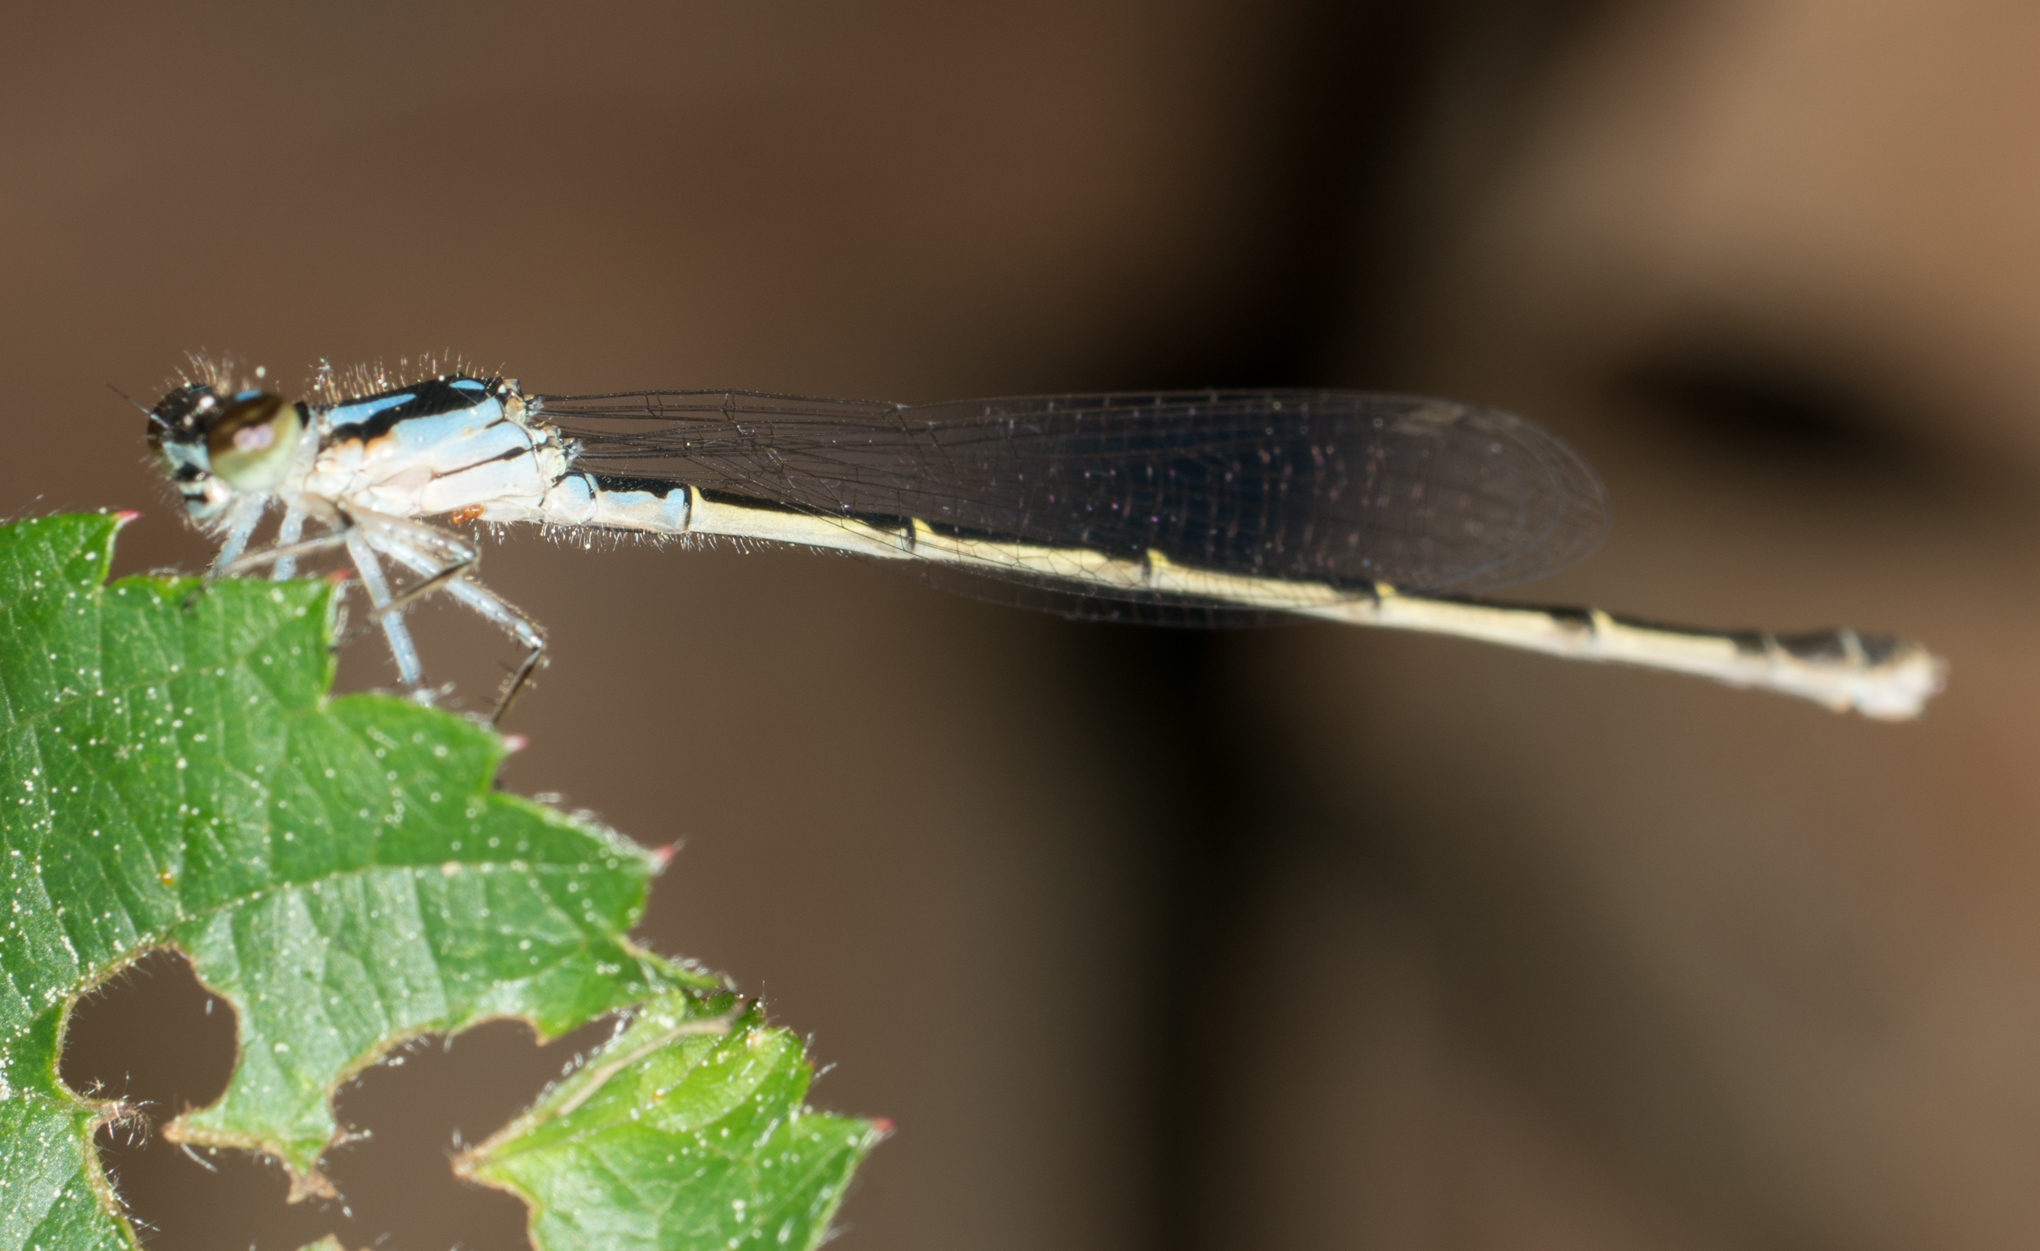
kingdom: Animalia
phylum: Arthropoda
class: Insecta
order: Odonata
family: Coenagrionidae
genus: Ischnura
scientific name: Ischnura posita
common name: Fragile forktail
